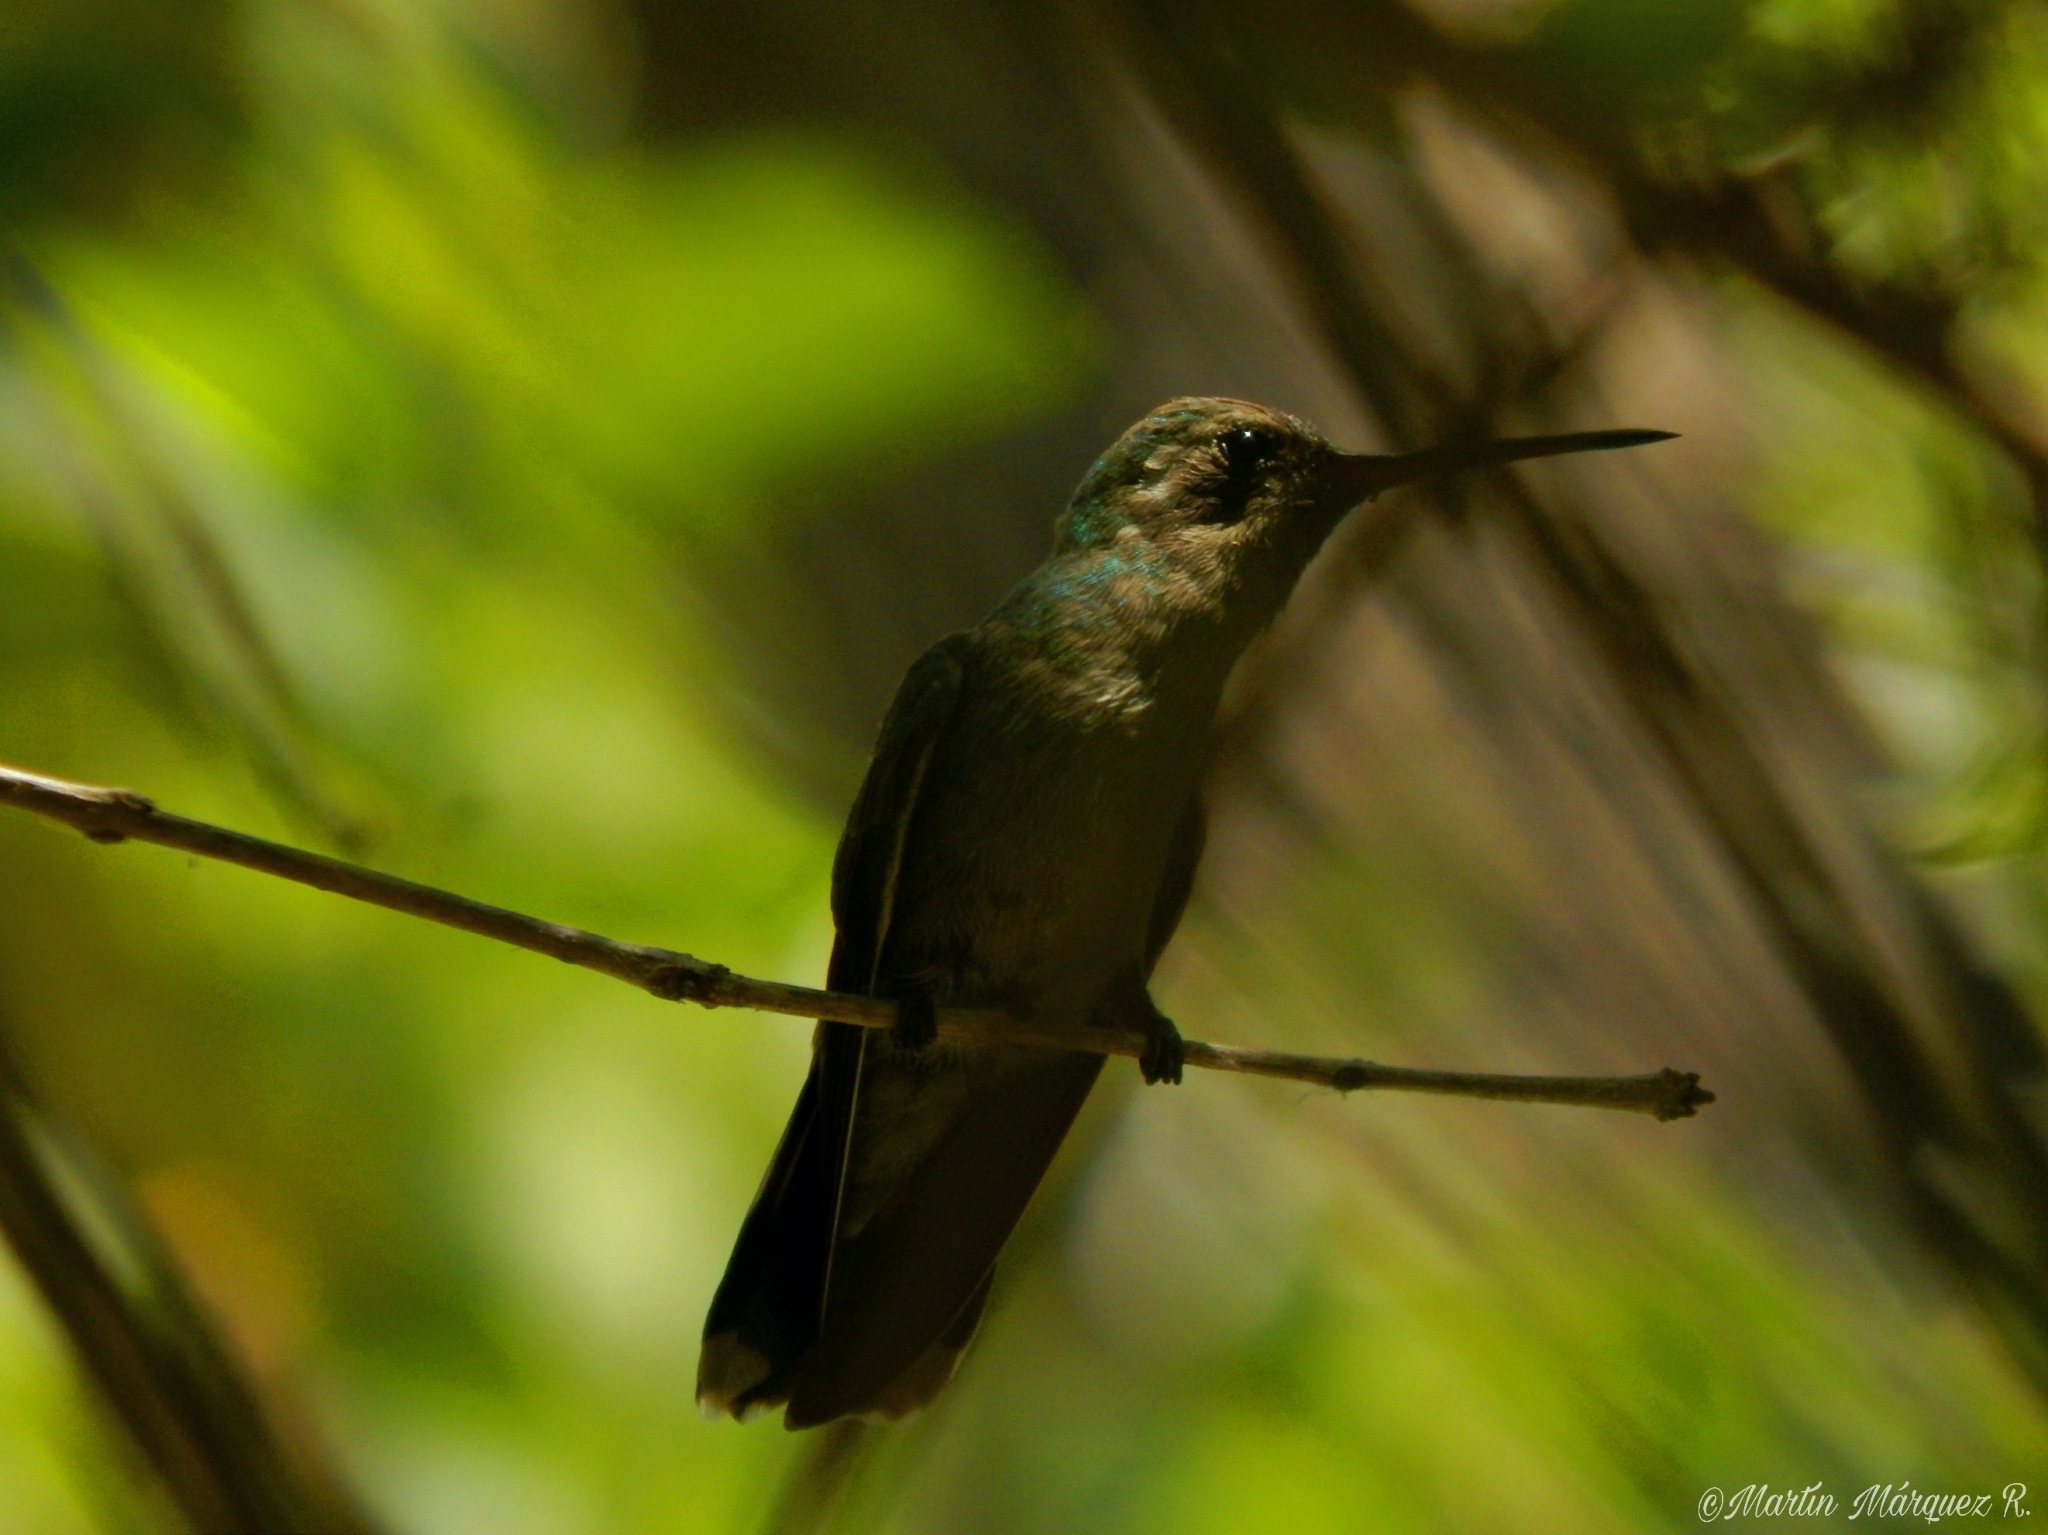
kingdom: Animalia
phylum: Chordata
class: Aves
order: Apodiformes
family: Trochilidae
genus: Cynanthus
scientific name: Cynanthus latirostris
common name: Broad-billed hummingbird
